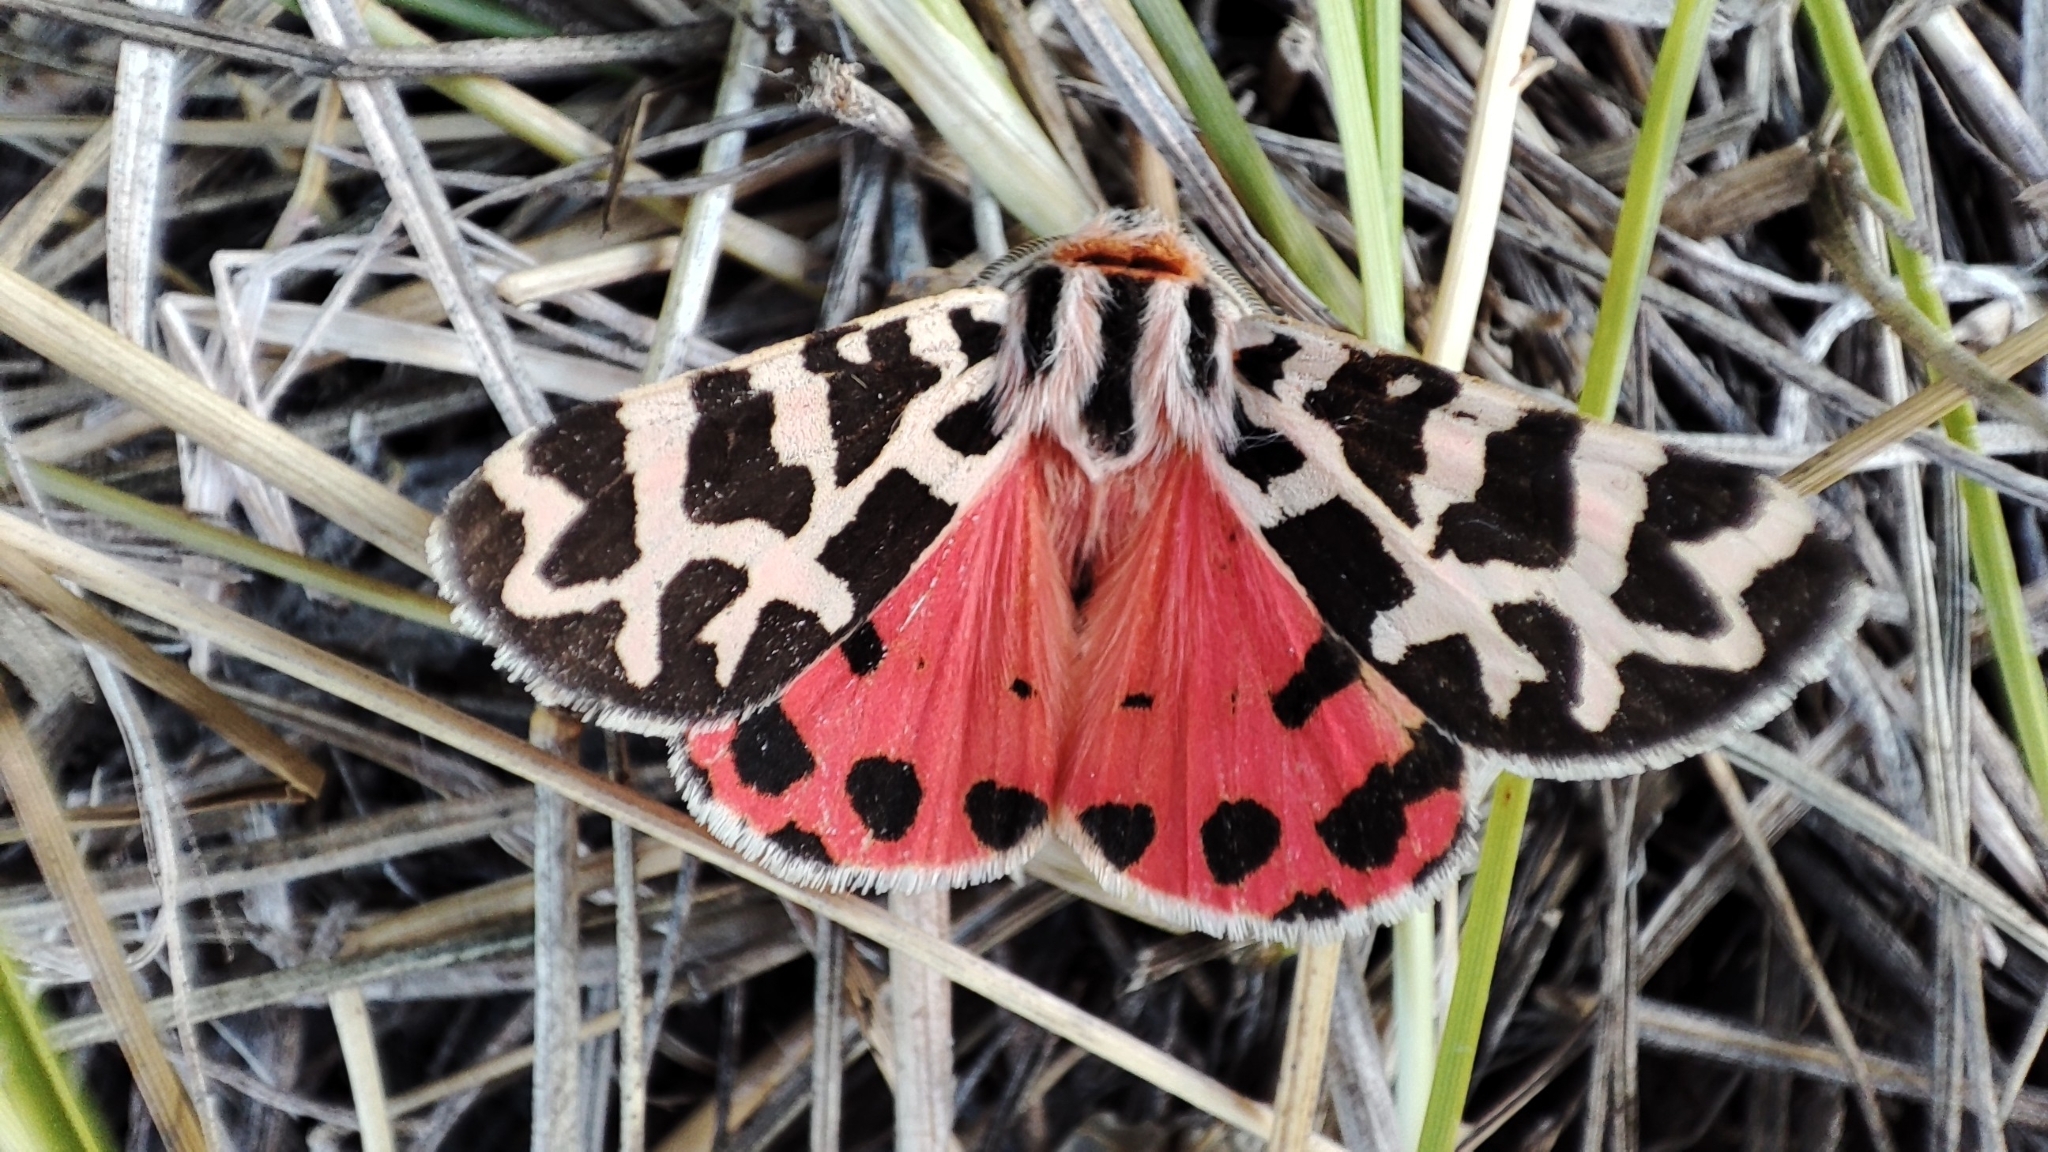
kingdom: Animalia
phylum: Arthropoda
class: Insecta
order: Lepidoptera
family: Erebidae
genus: Palearctia
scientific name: Palearctia
